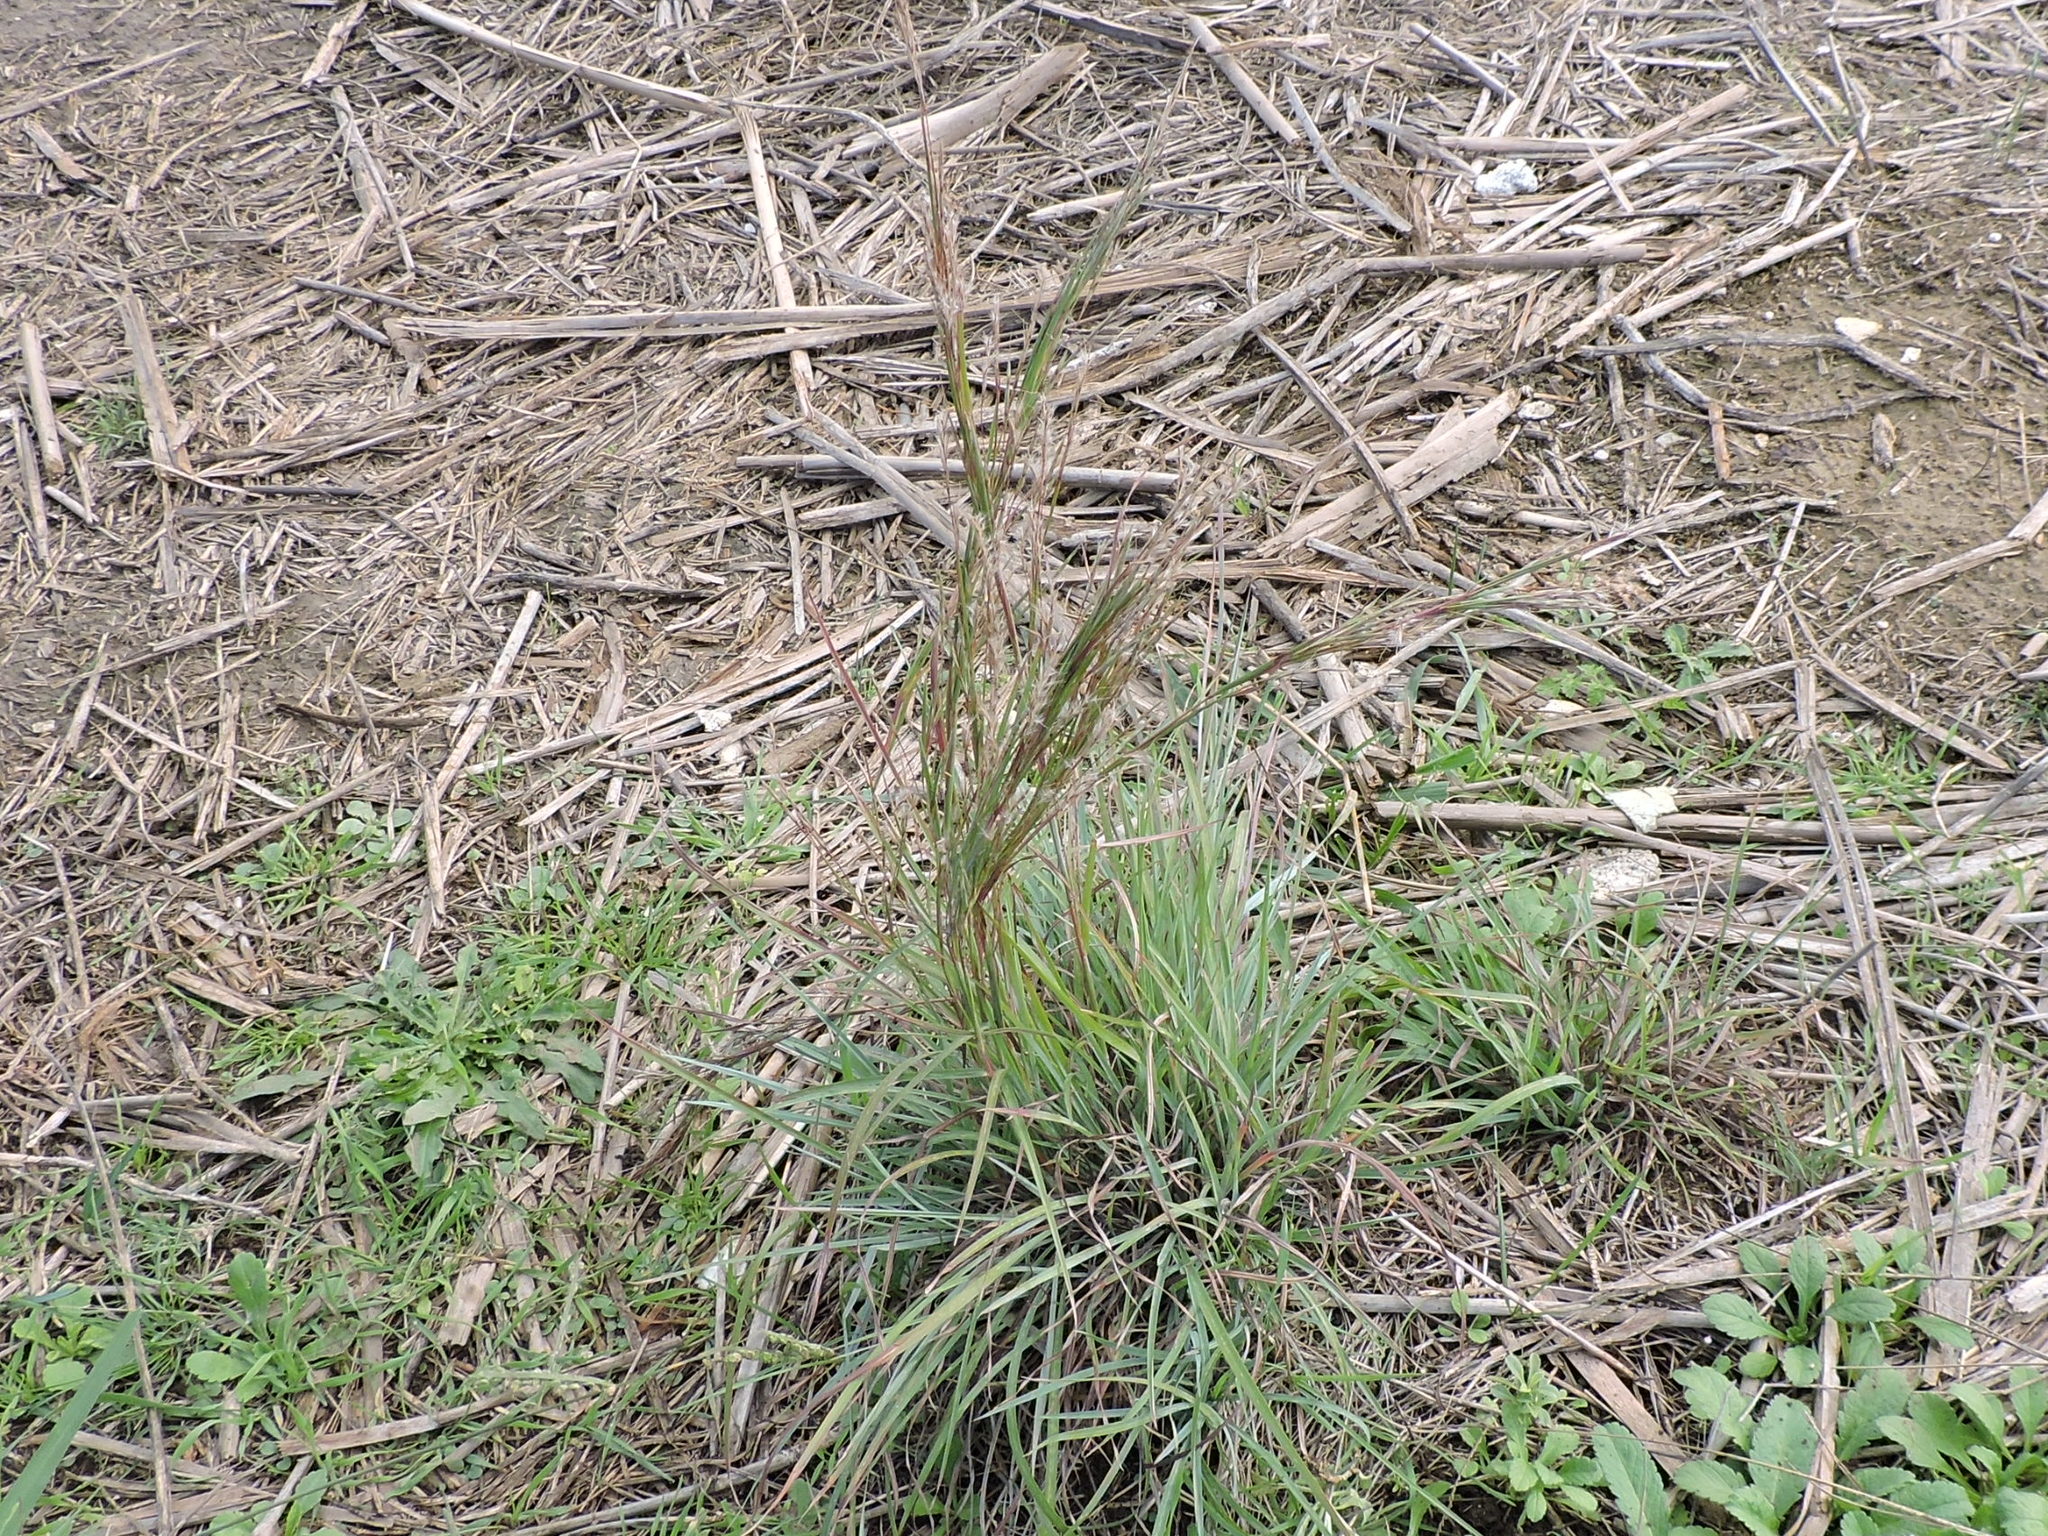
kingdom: Plantae
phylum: Tracheophyta
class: Liliopsida
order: Poales
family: Poaceae
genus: Schizachyrium
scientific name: Schizachyrium scoparium
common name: Little bluestem
